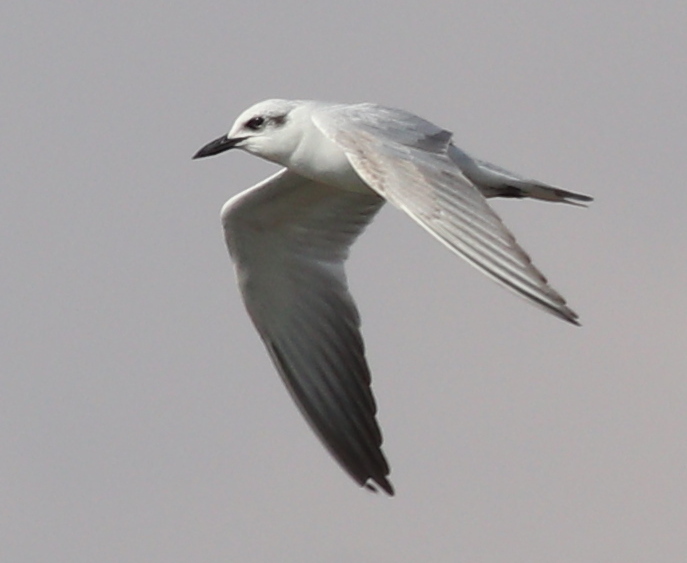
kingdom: Animalia
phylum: Chordata
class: Aves
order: Charadriiformes
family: Laridae
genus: Gelochelidon
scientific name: Gelochelidon nilotica
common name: Gull-billed tern
